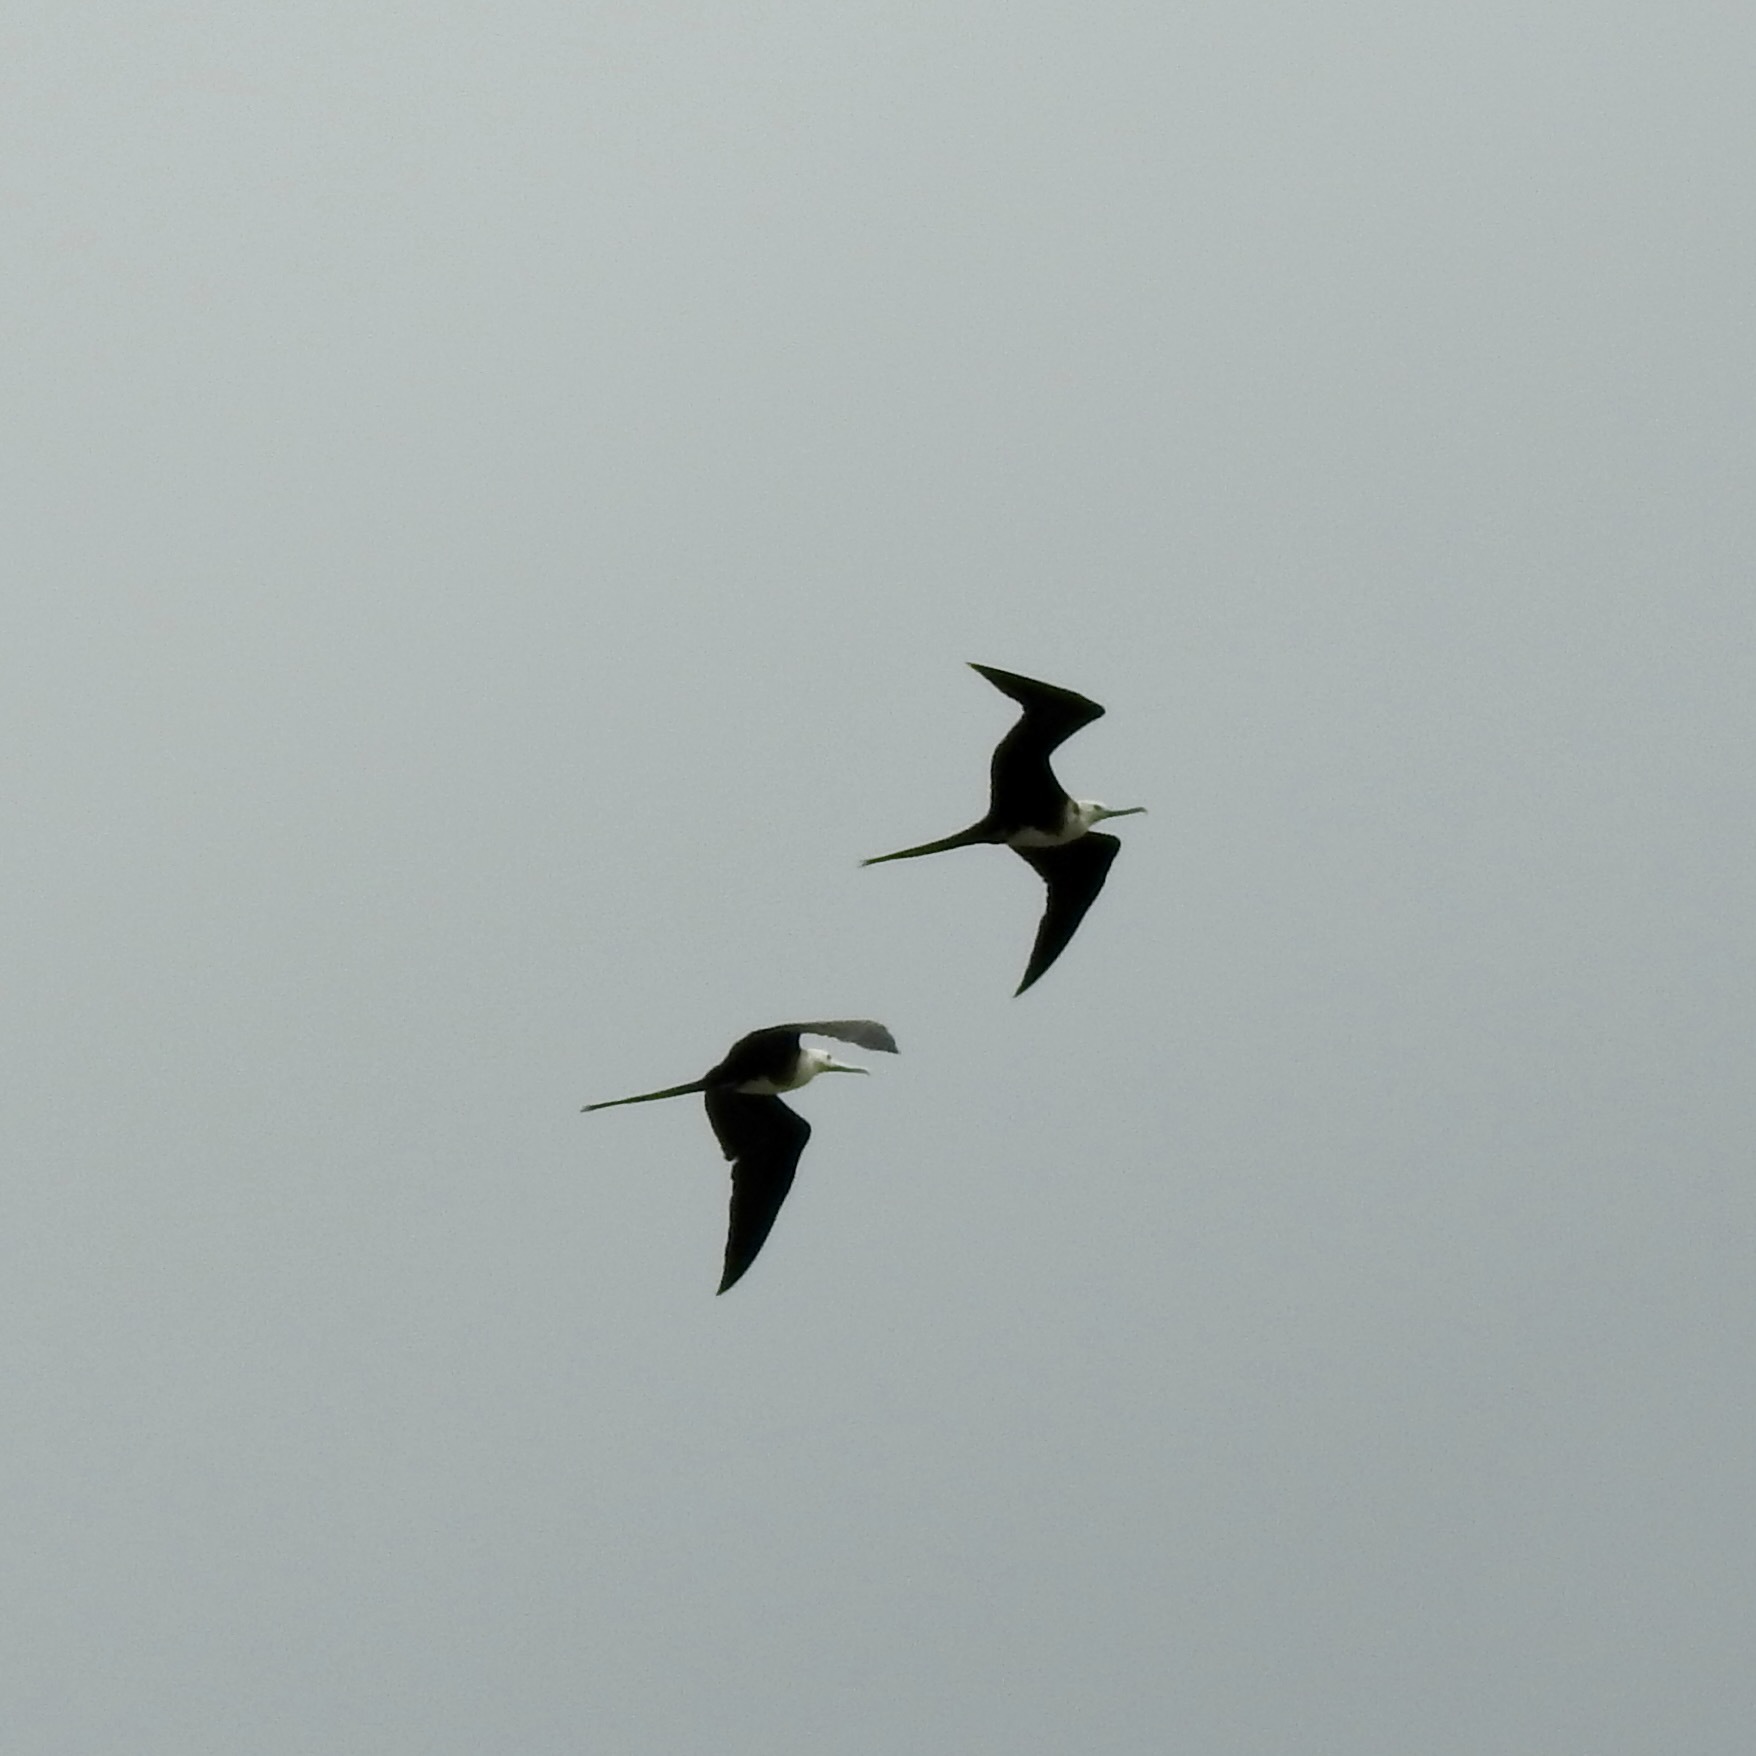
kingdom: Animalia
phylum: Chordata
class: Aves
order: Suliformes
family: Fregatidae
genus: Fregata
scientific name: Fregata magnificens
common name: Magnificent frigatebird
